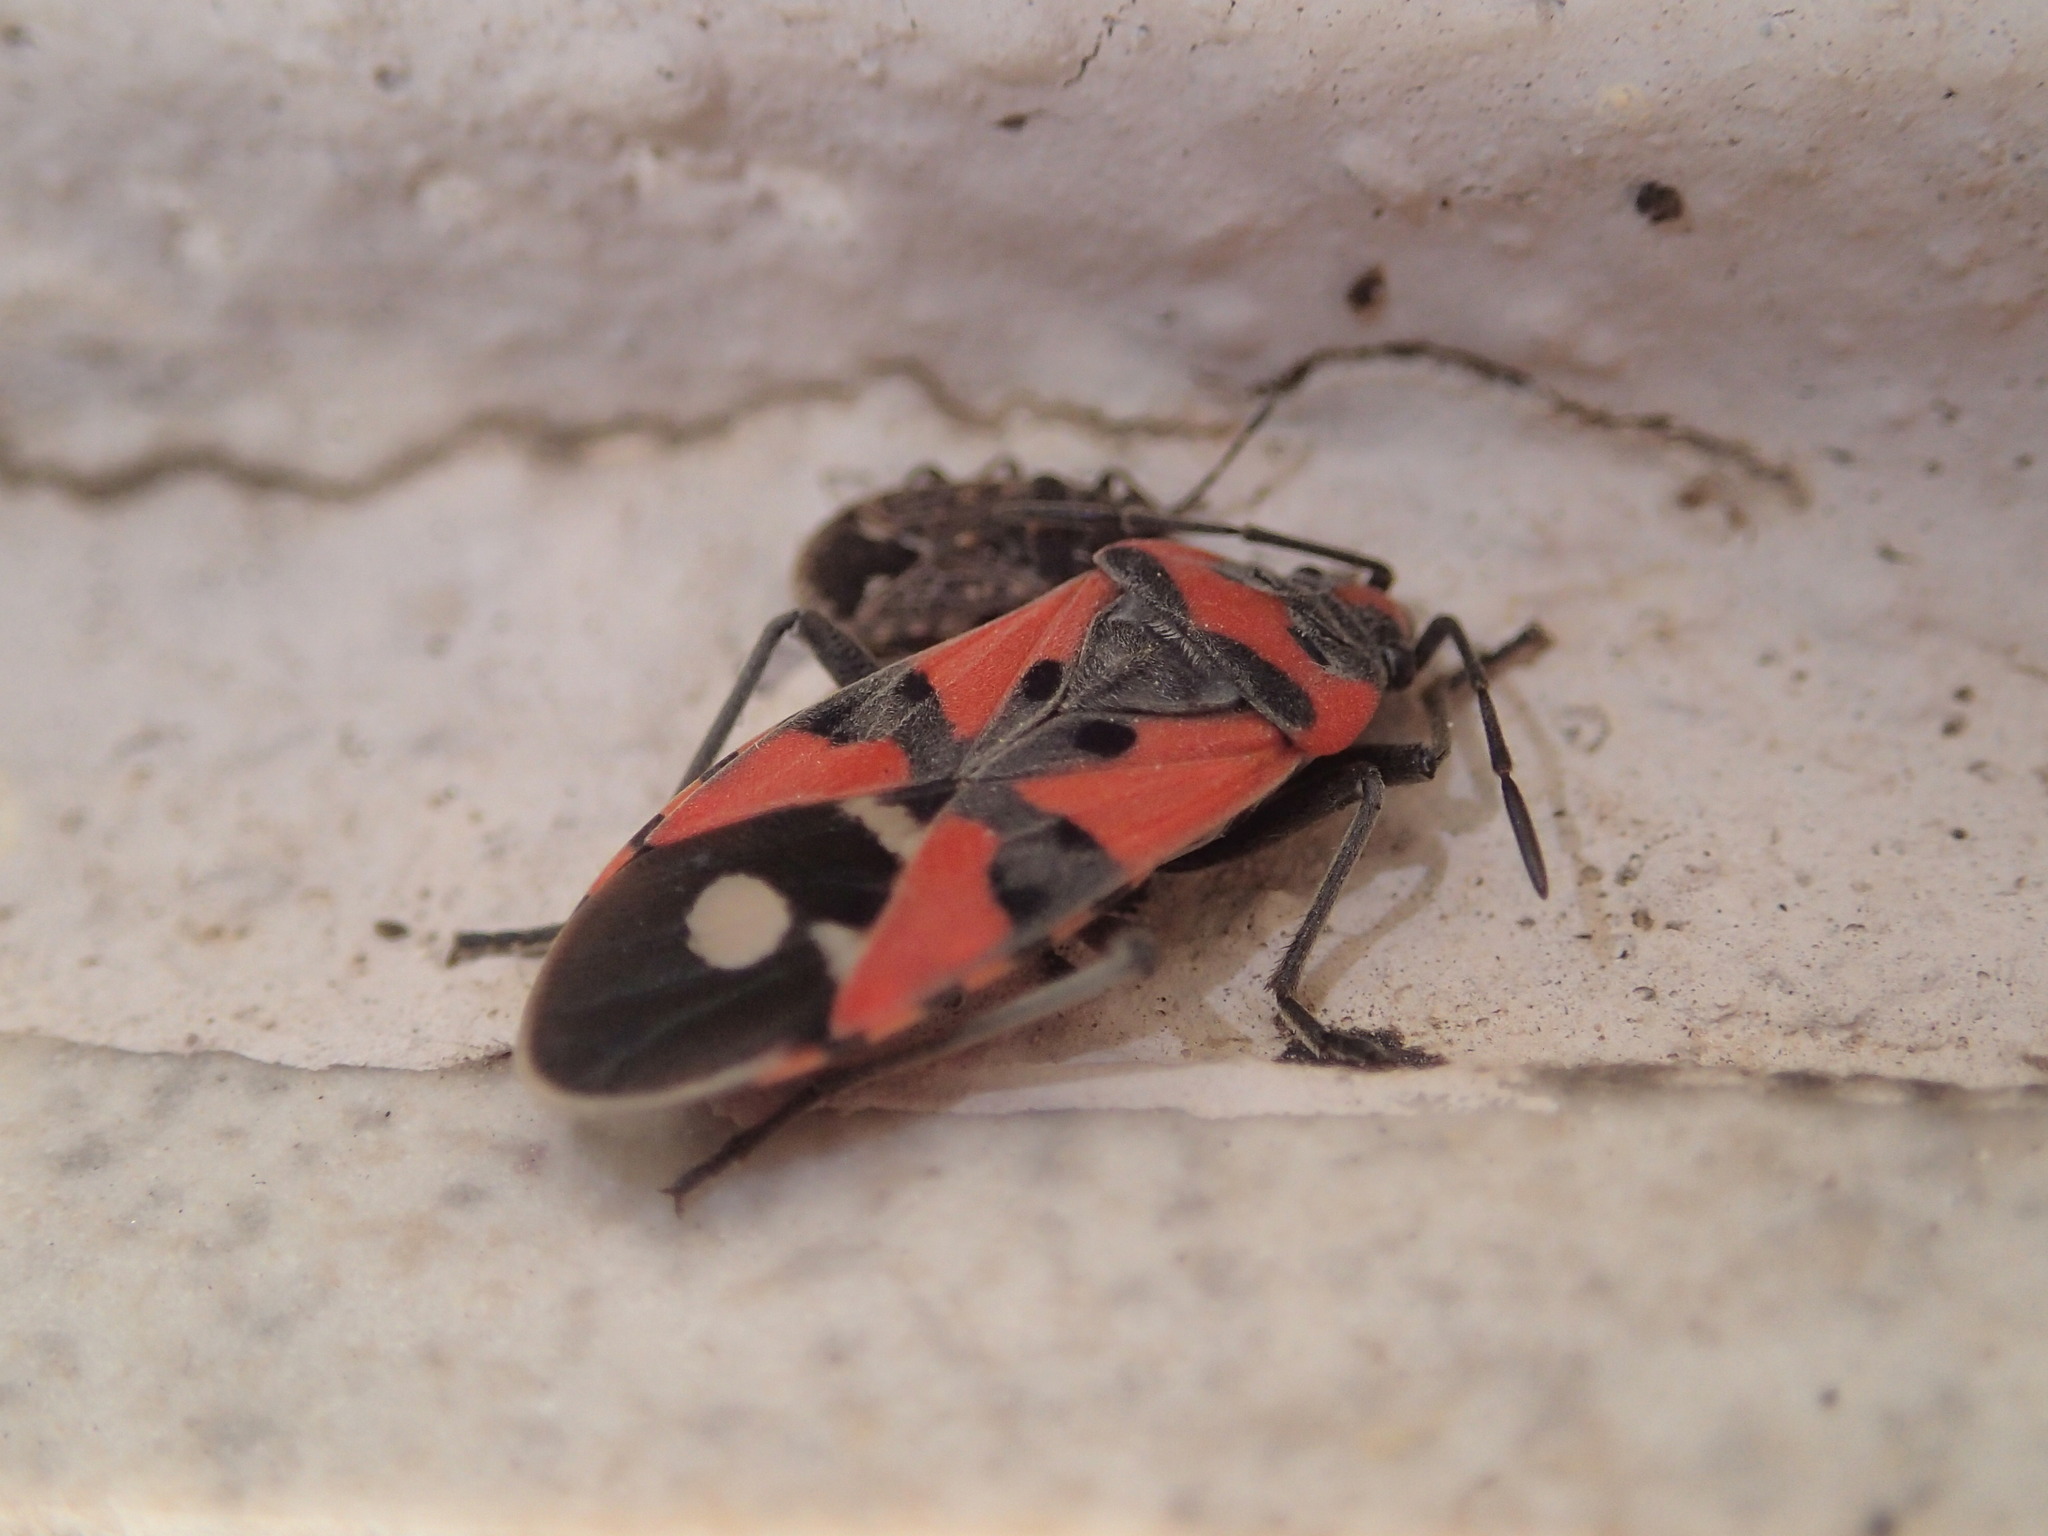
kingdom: Animalia
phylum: Arthropoda
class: Insecta
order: Hemiptera
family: Lygaeidae
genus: Lygaeus
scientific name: Lygaeus equestris
